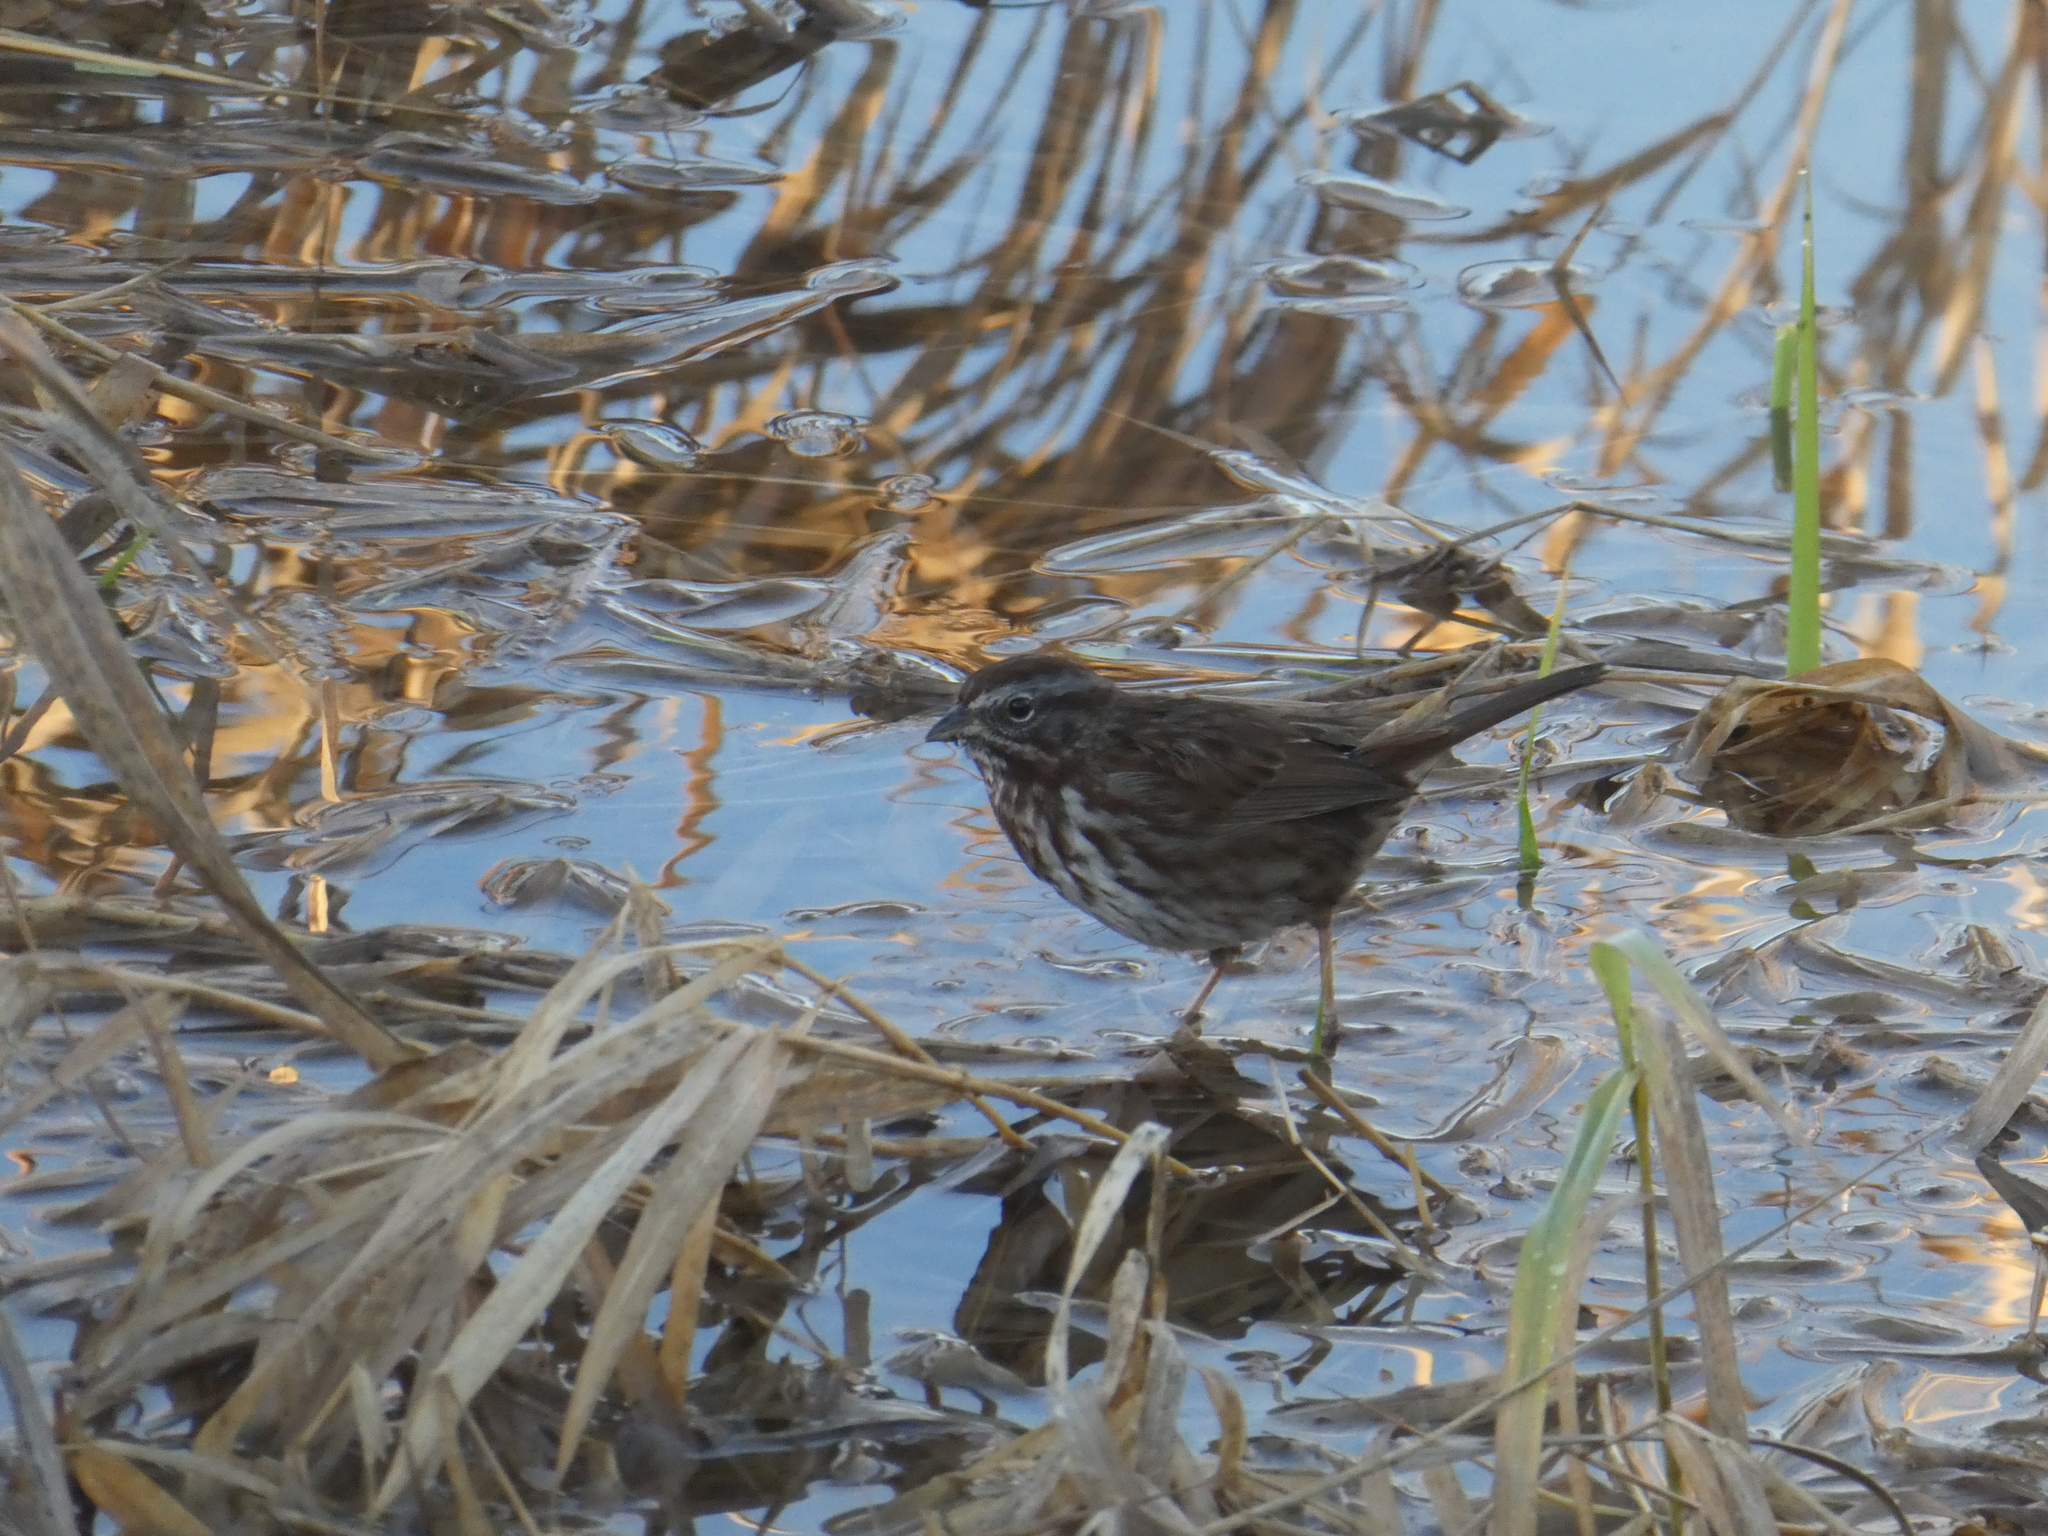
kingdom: Animalia
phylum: Chordata
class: Aves
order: Passeriformes
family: Passerellidae
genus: Melospiza
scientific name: Melospiza melodia
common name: Song sparrow
